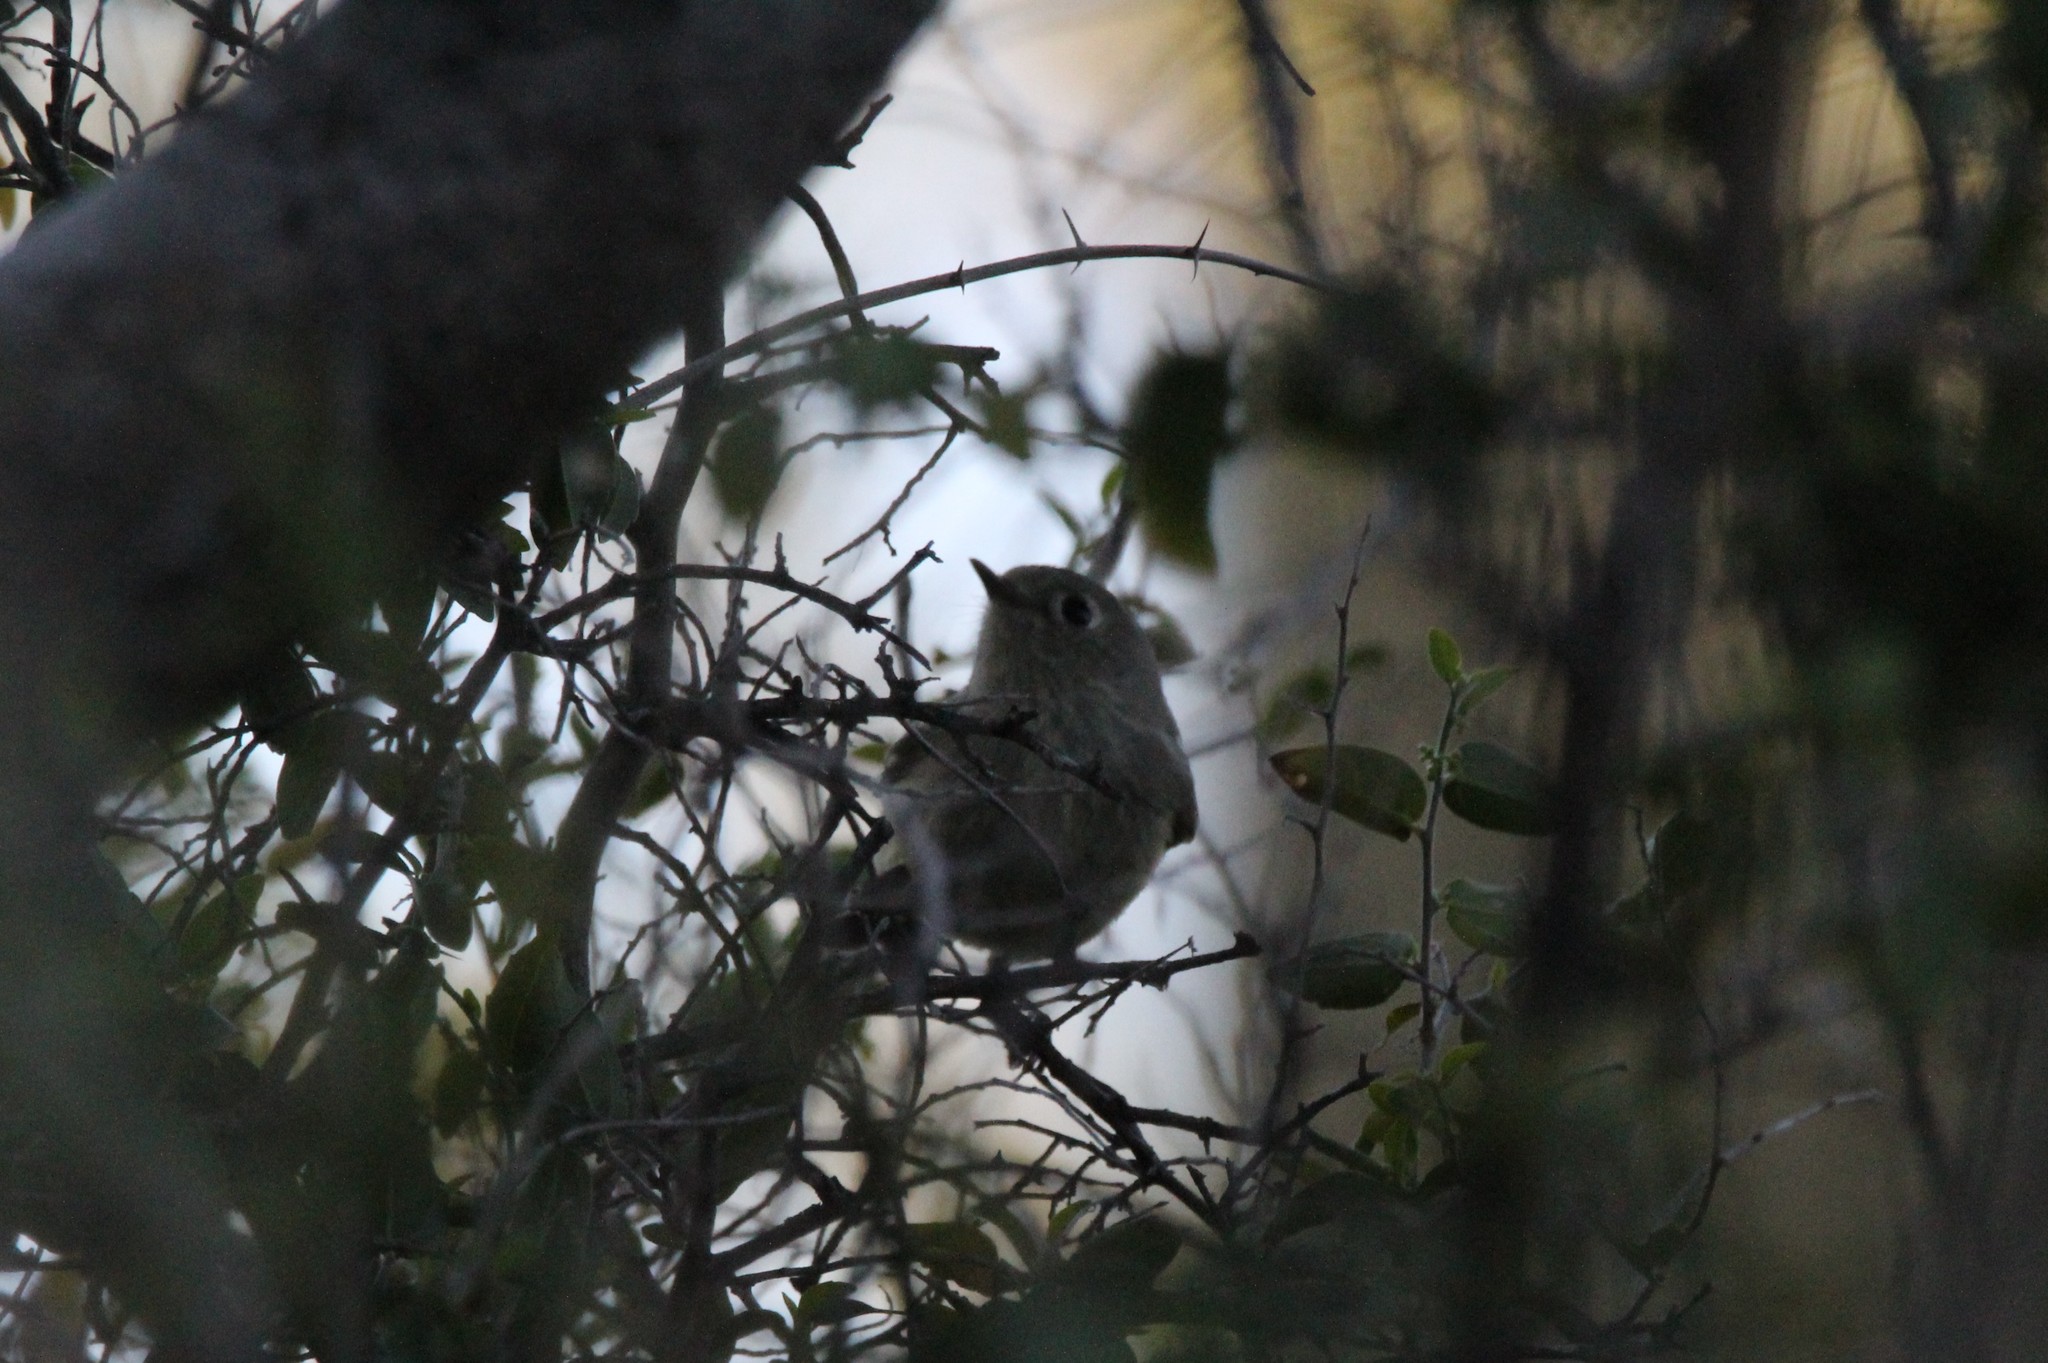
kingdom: Animalia
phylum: Chordata
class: Aves
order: Passeriformes
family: Regulidae
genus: Regulus
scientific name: Regulus calendula
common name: Ruby-crowned kinglet
